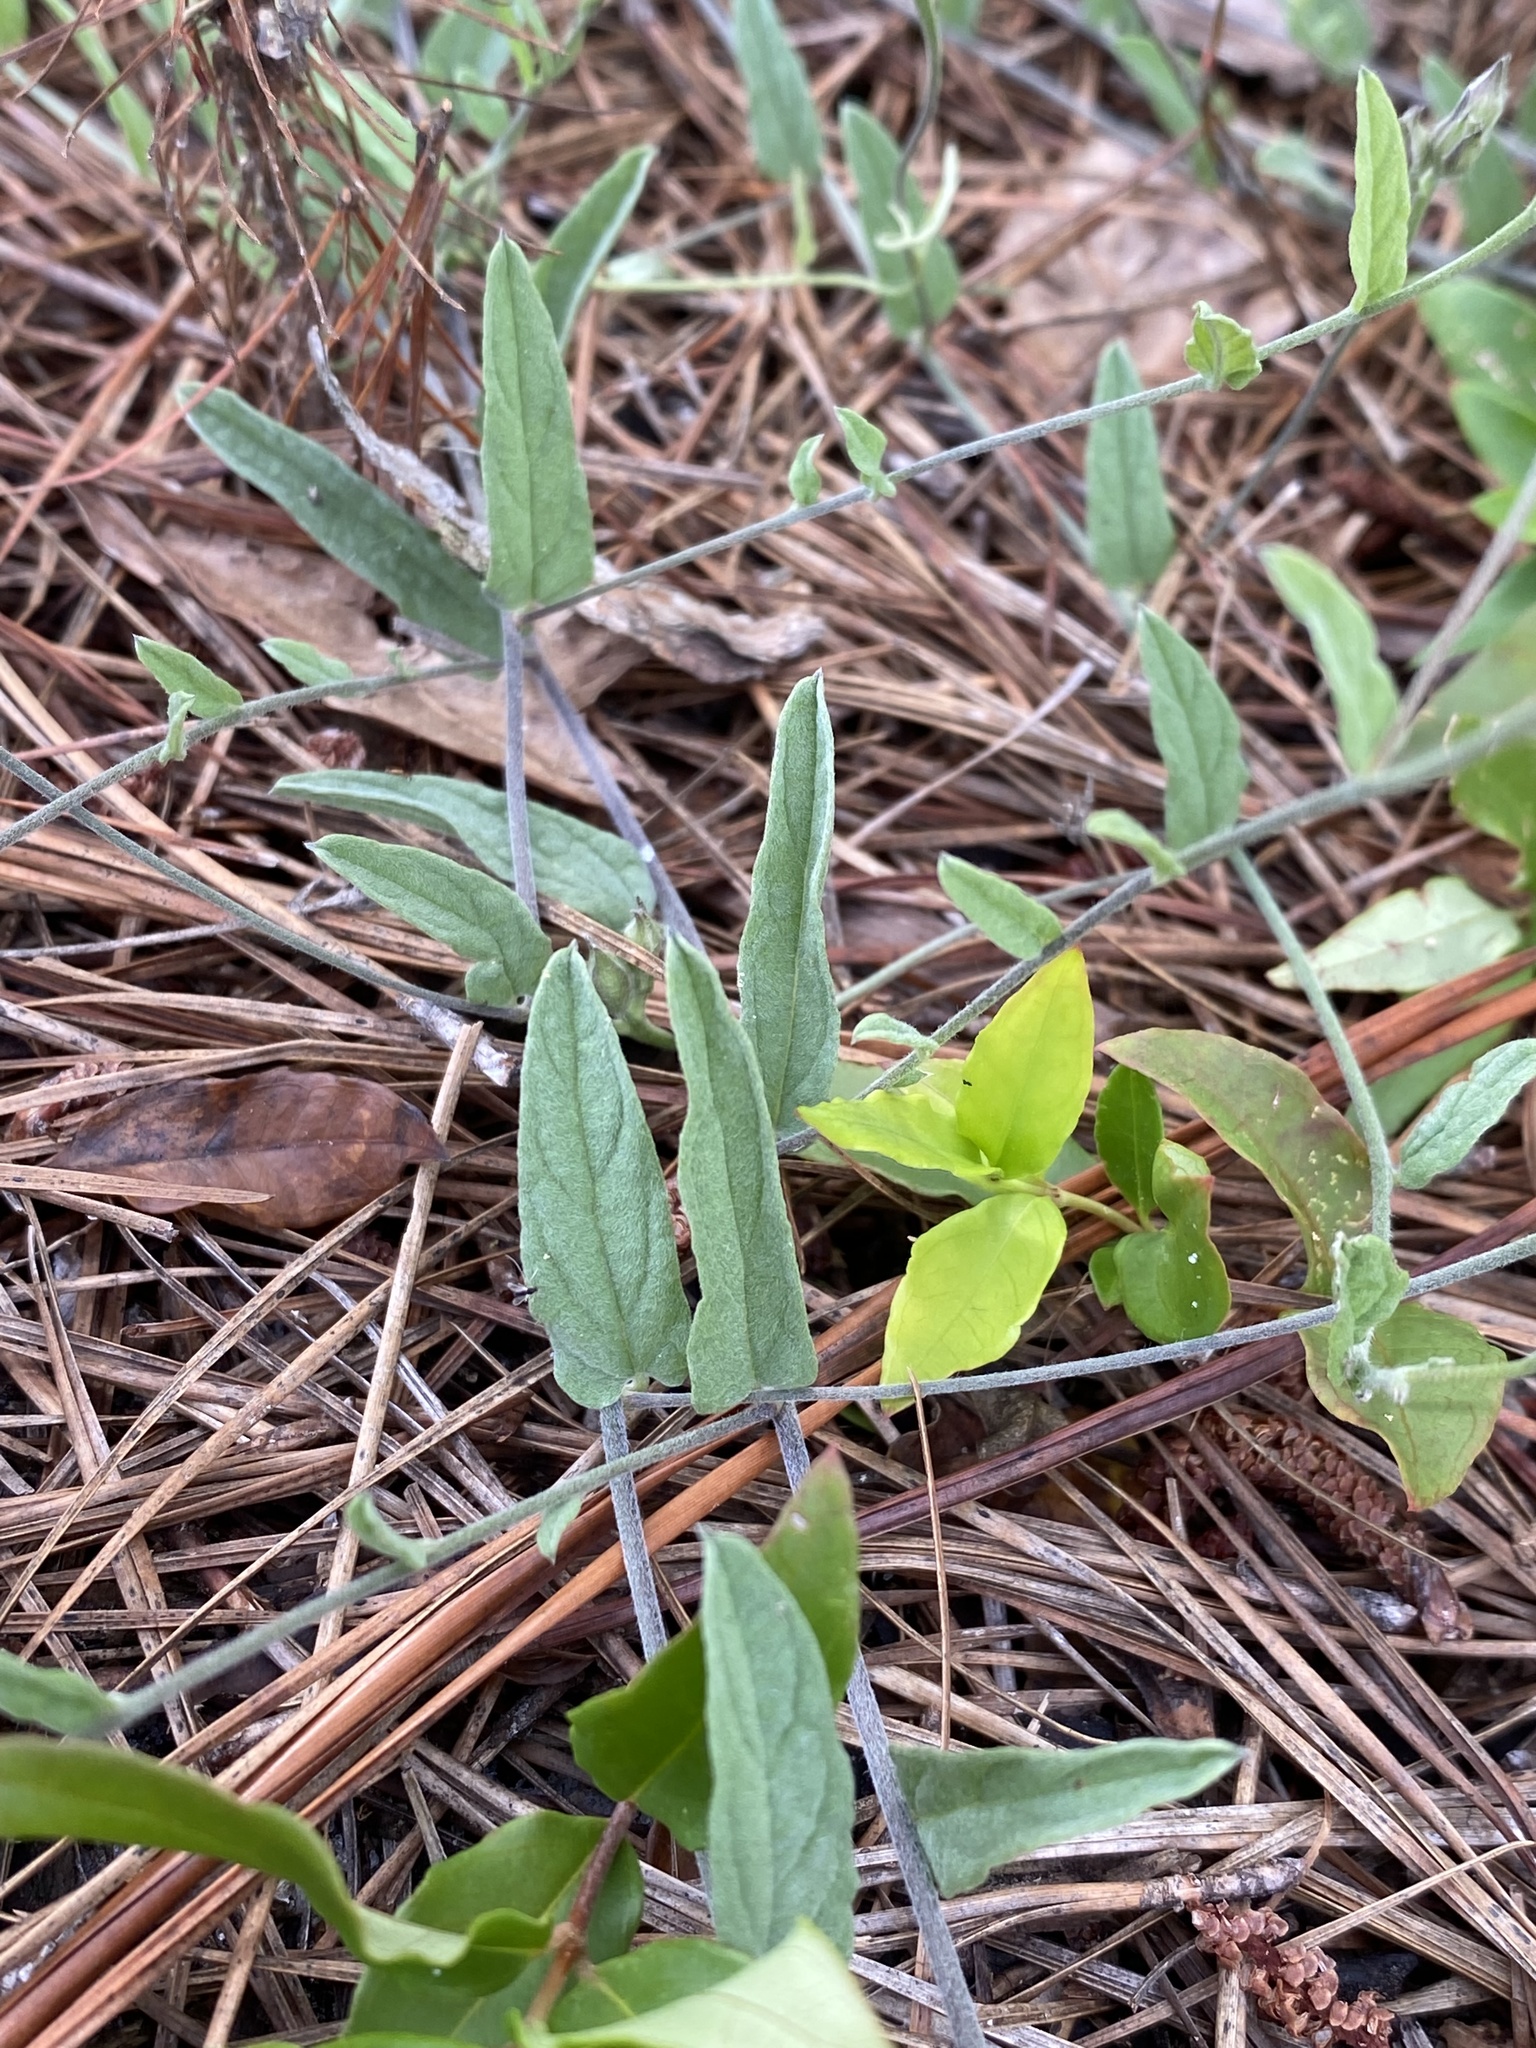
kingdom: Plantae
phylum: Tracheophyta
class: Magnoliopsida
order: Solanales
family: Convolvulaceae
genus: Stylisma
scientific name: Stylisma aquatica
